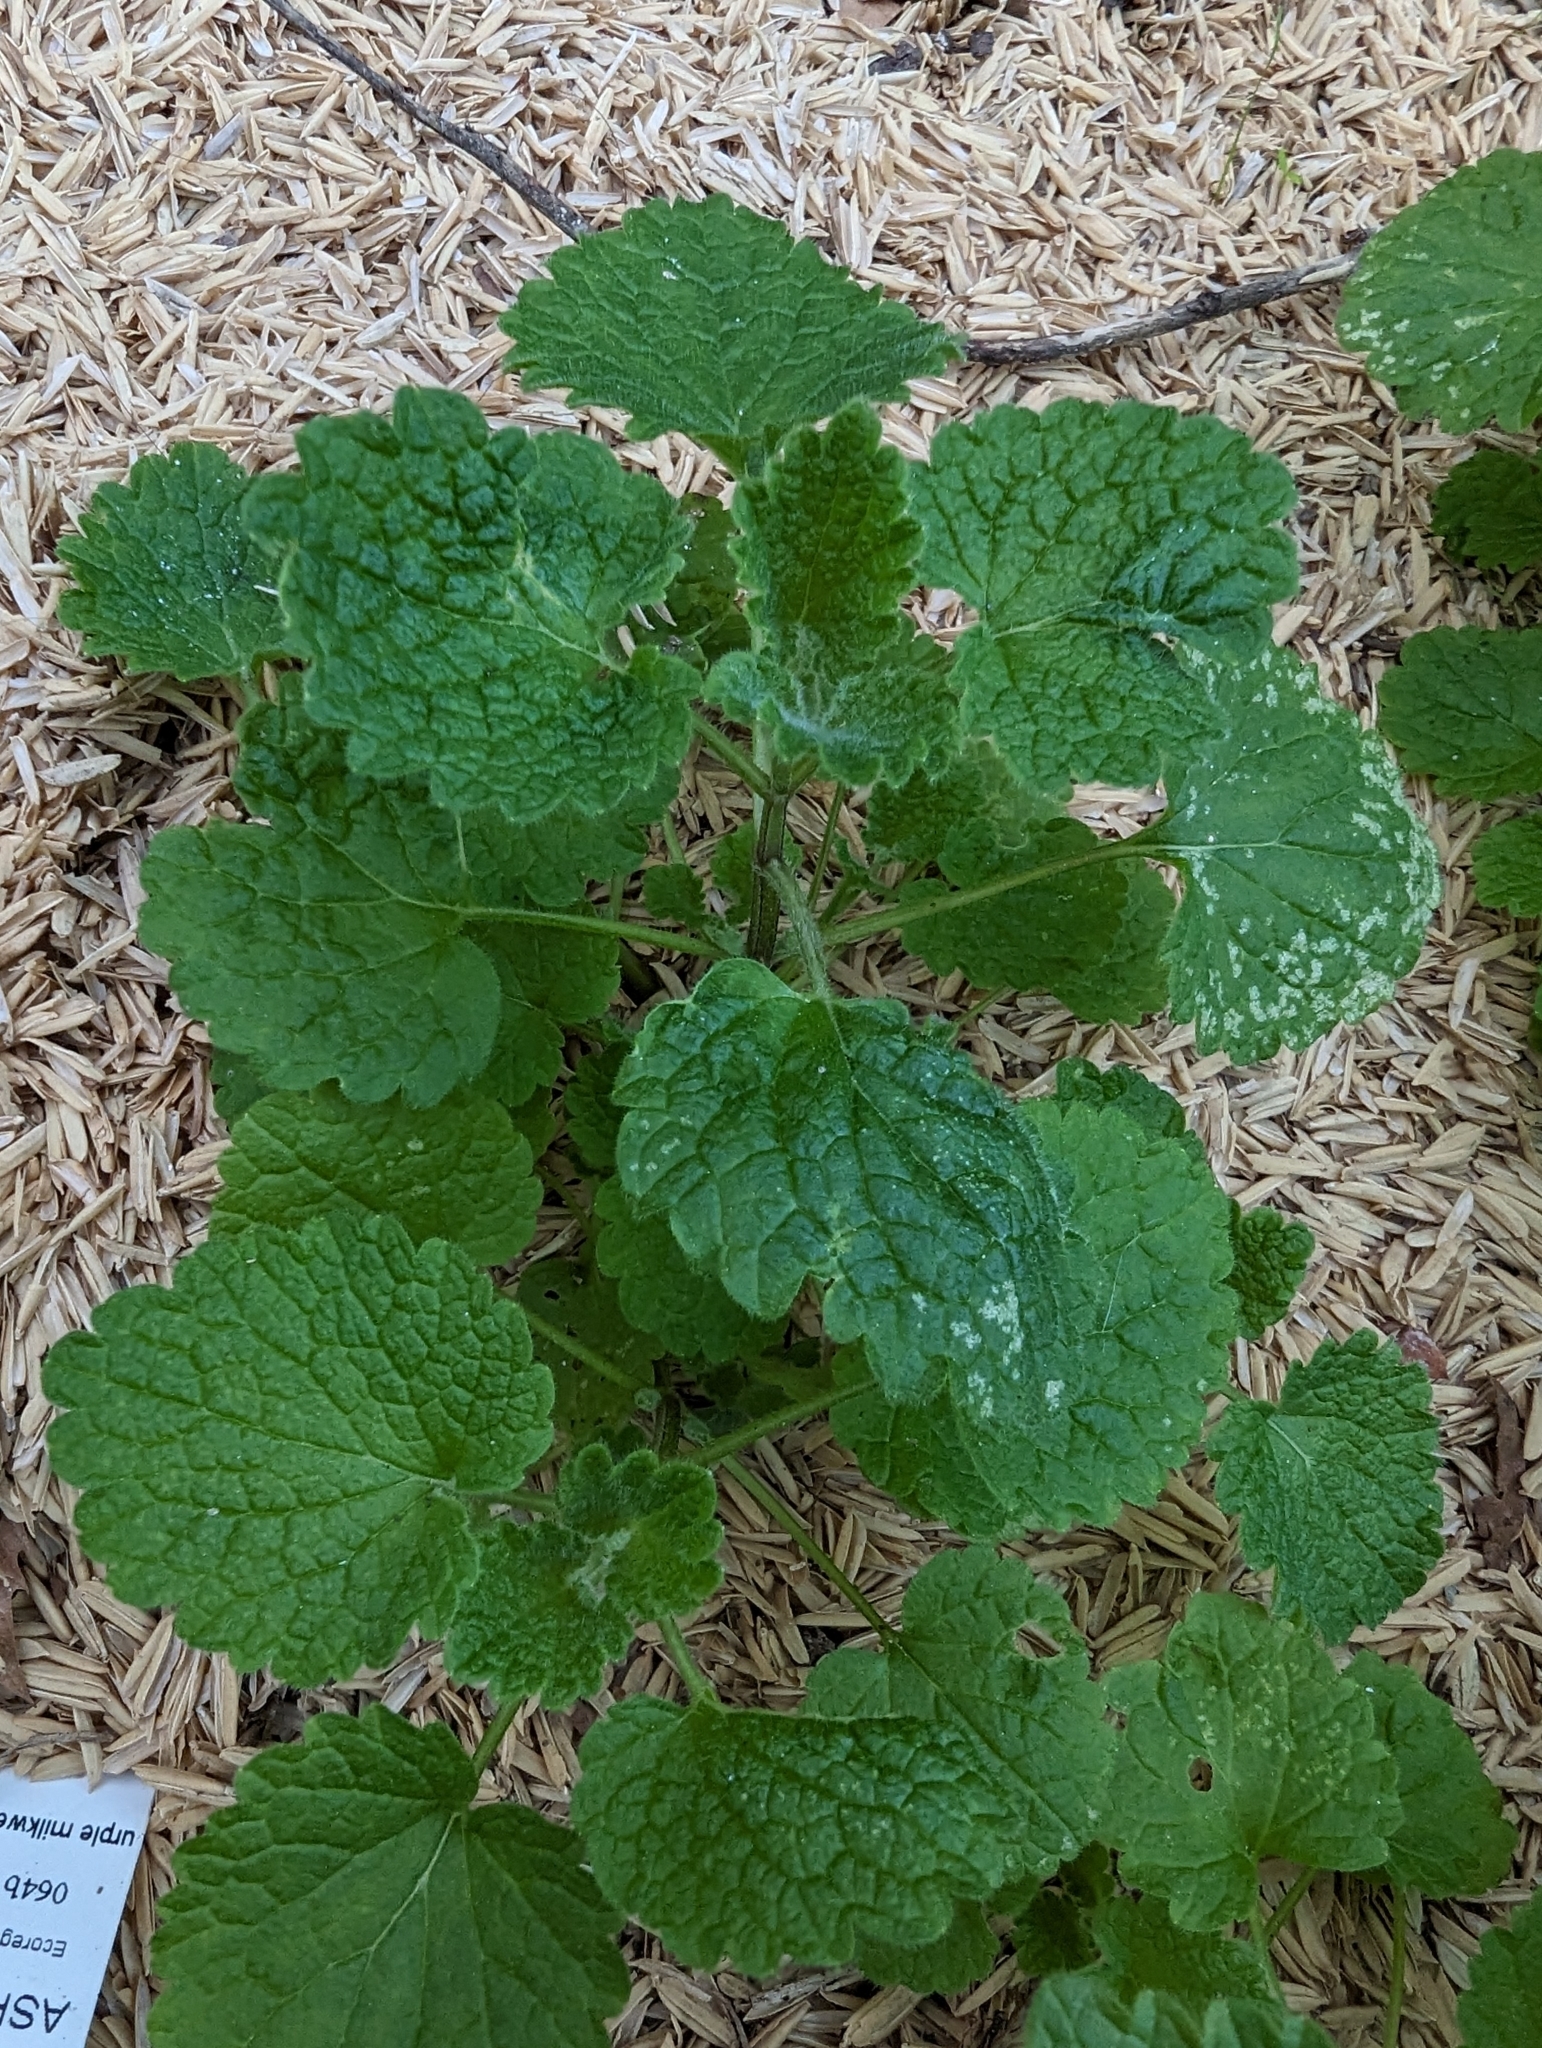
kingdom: Plantae
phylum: Tracheophyta
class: Magnoliopsida
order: Lamiales
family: Lamiaceae
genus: Lamium
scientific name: Lamium purpureum
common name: Red dead-nettle
